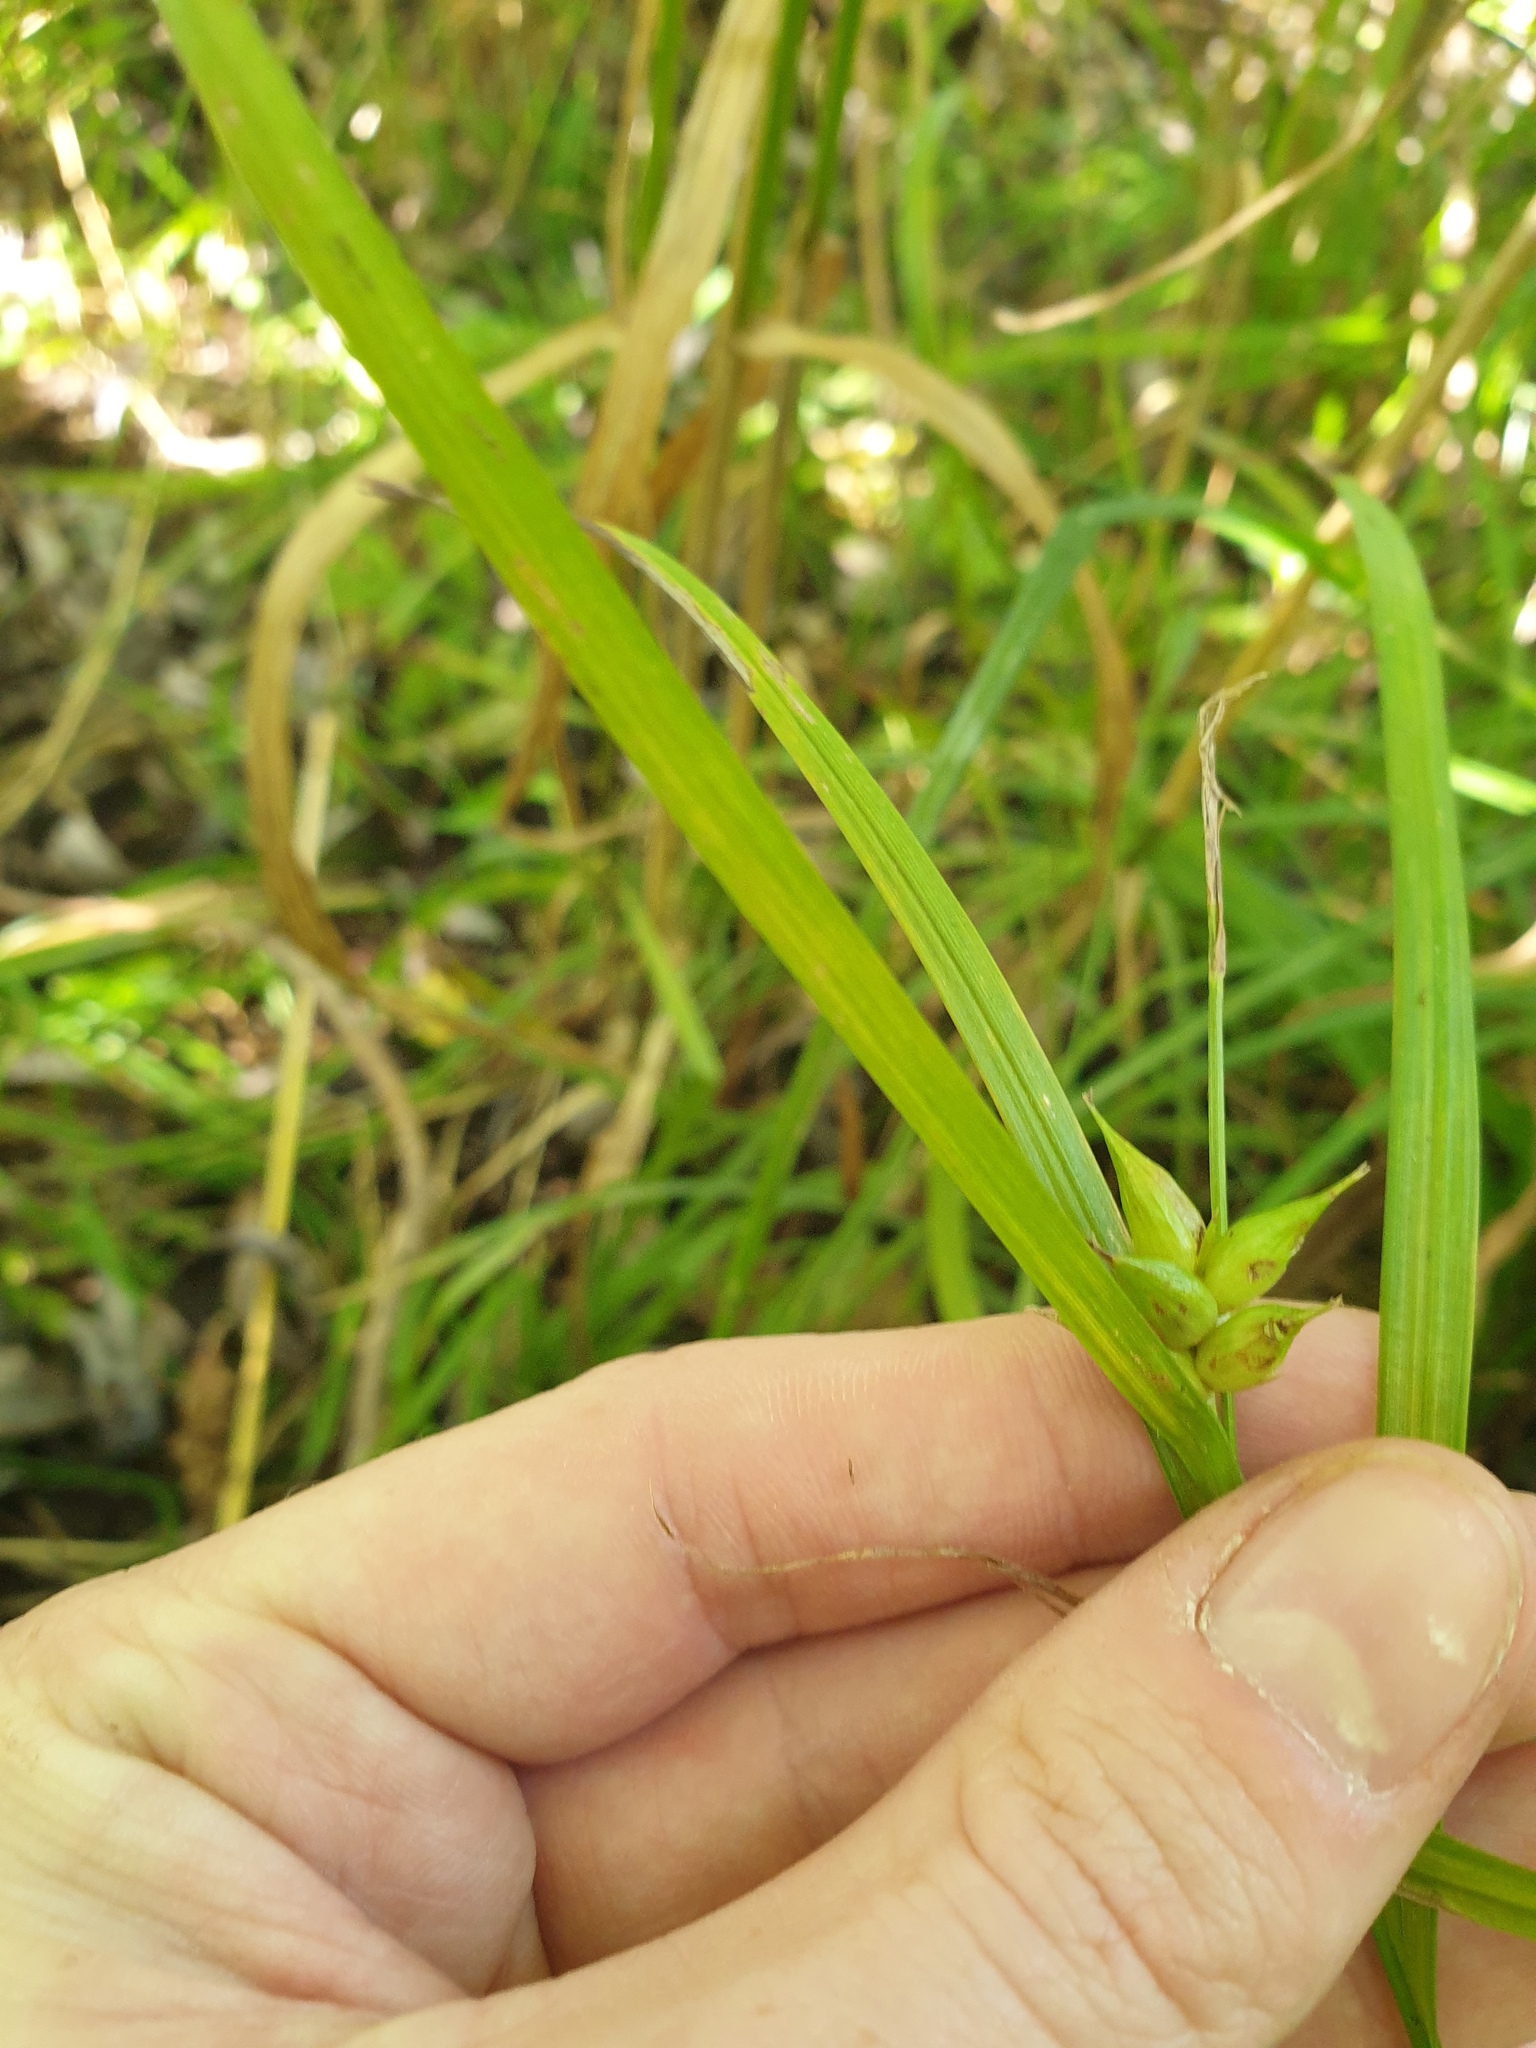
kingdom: Plantae
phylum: Tracheophyta
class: Liliopsida
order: Poales
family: Cyperaceae
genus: Carex
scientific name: Carex intumescens
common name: Greater bladder sedge
